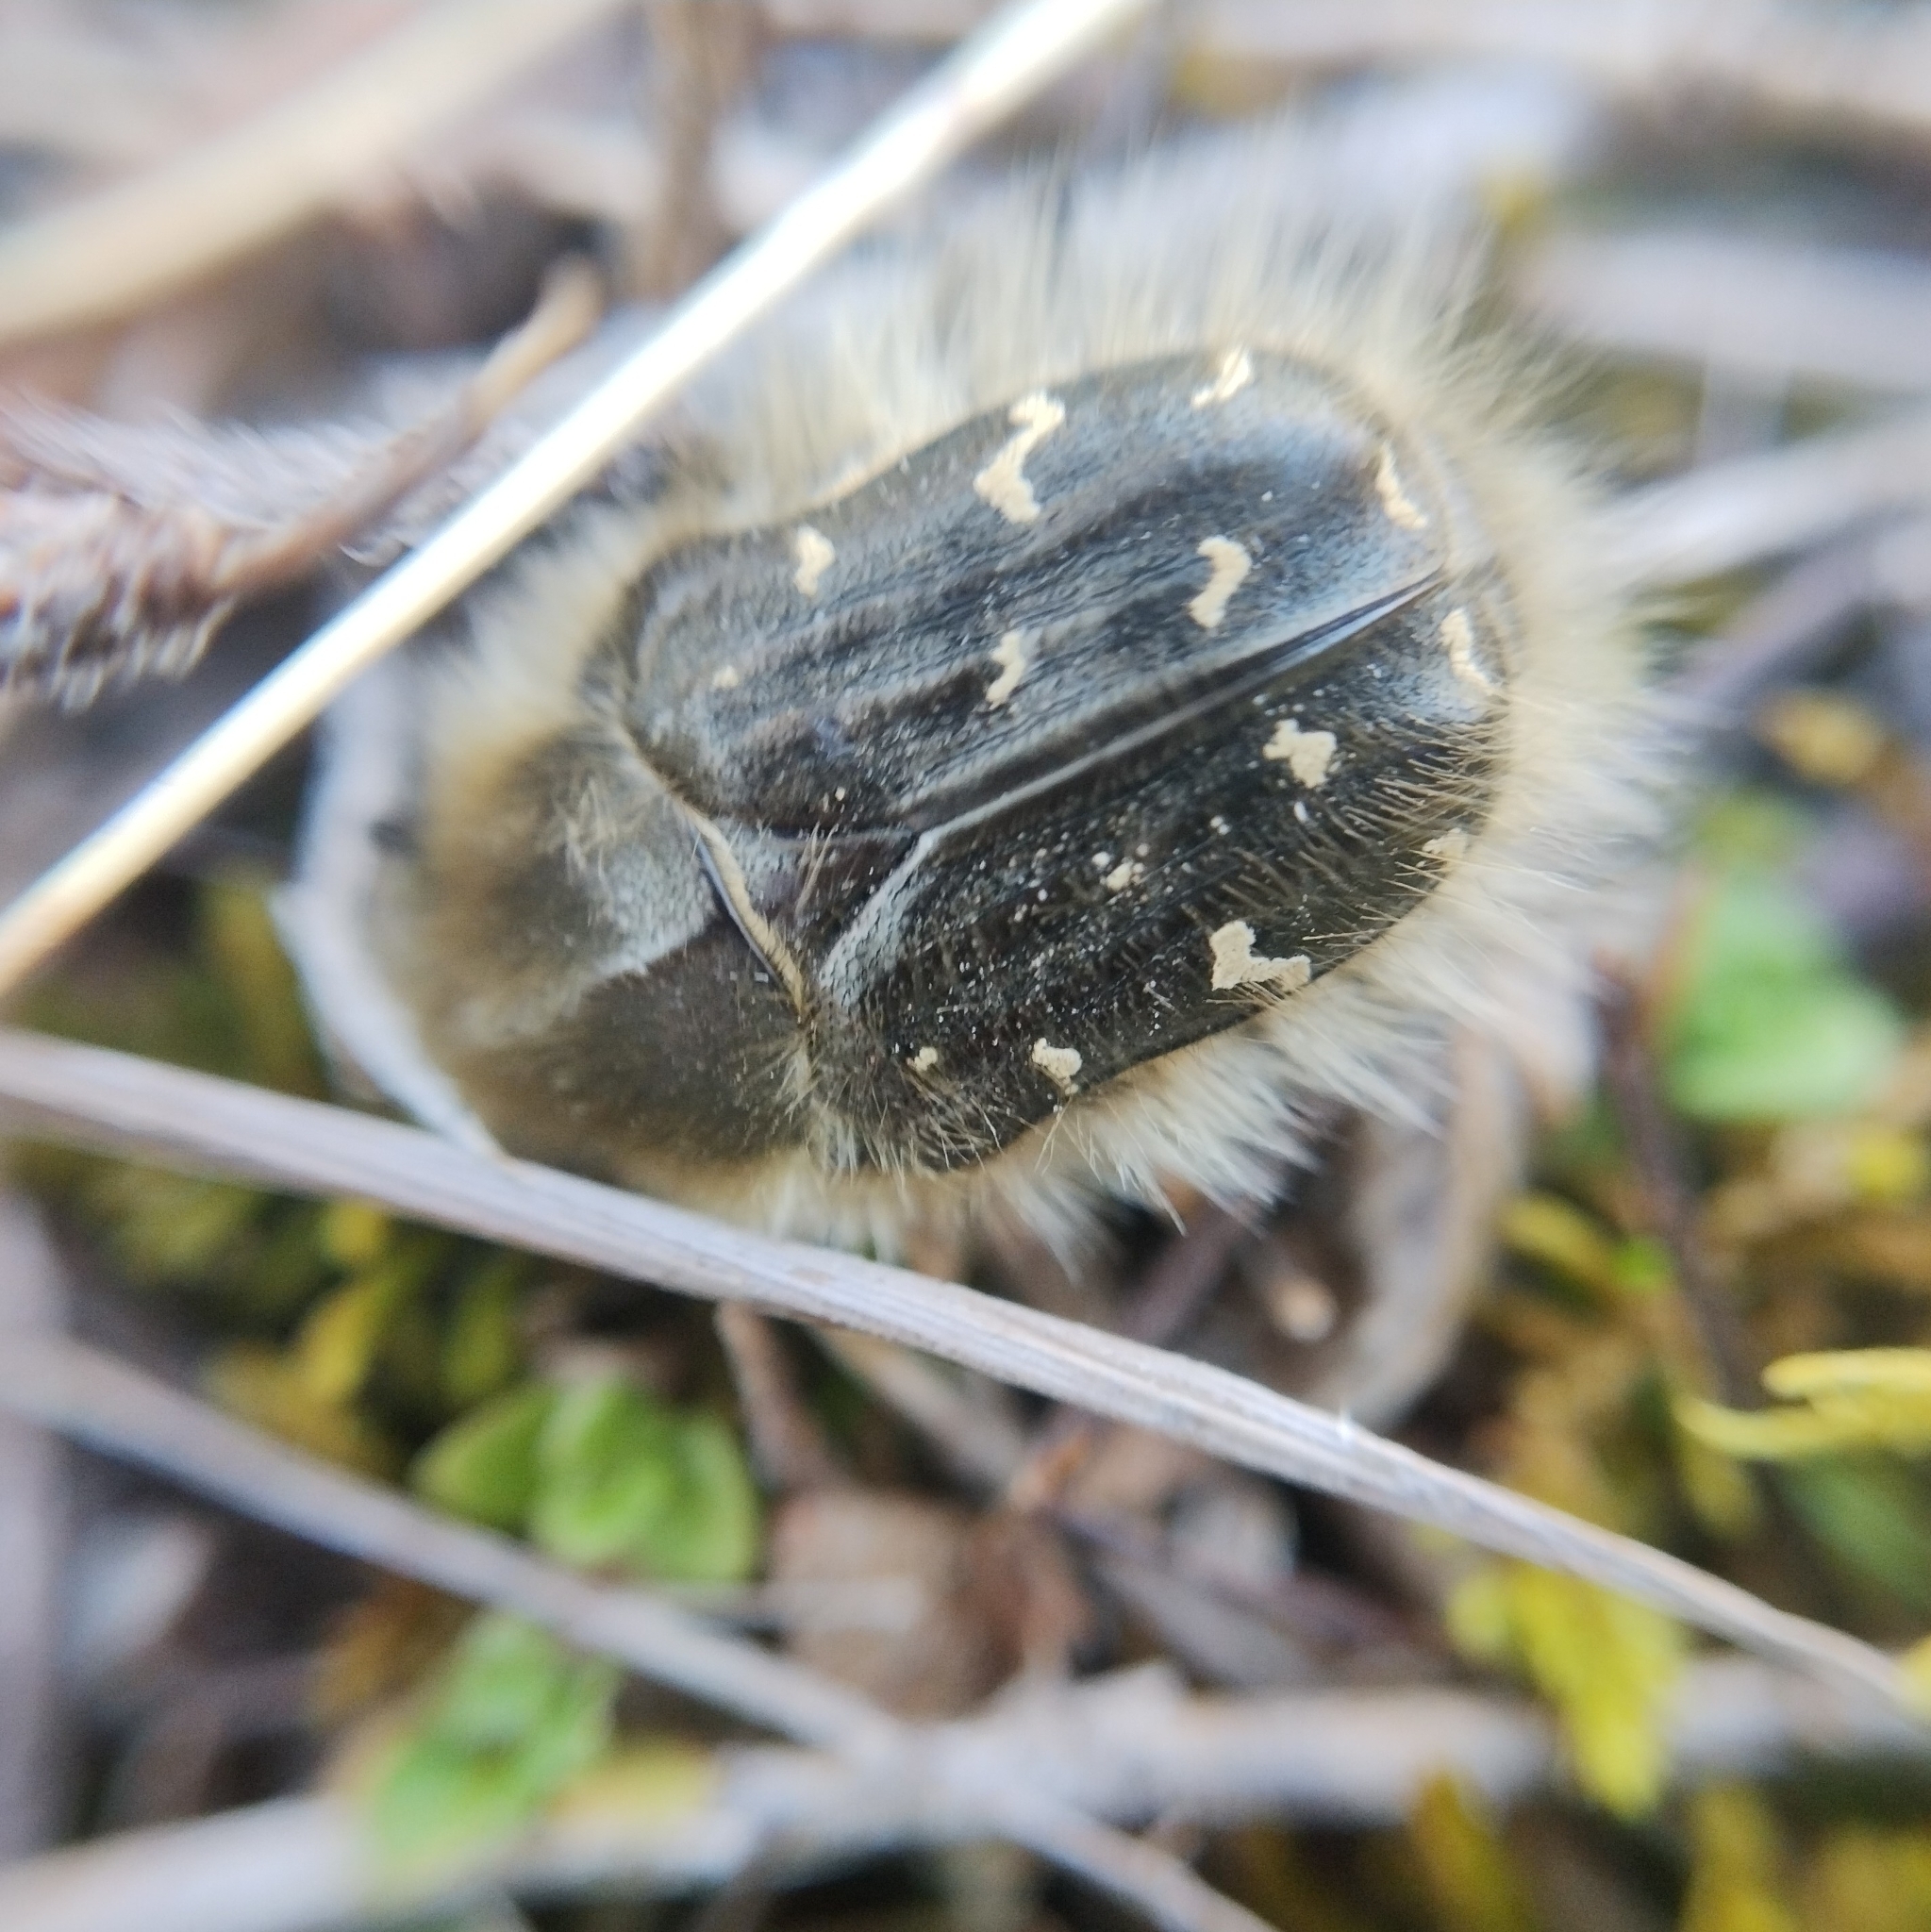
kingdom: Animalia
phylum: Arthropoda
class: Insecta
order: Coleoptera
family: Scarabaeidae
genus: Tropinota
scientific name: Tropinota hirta
